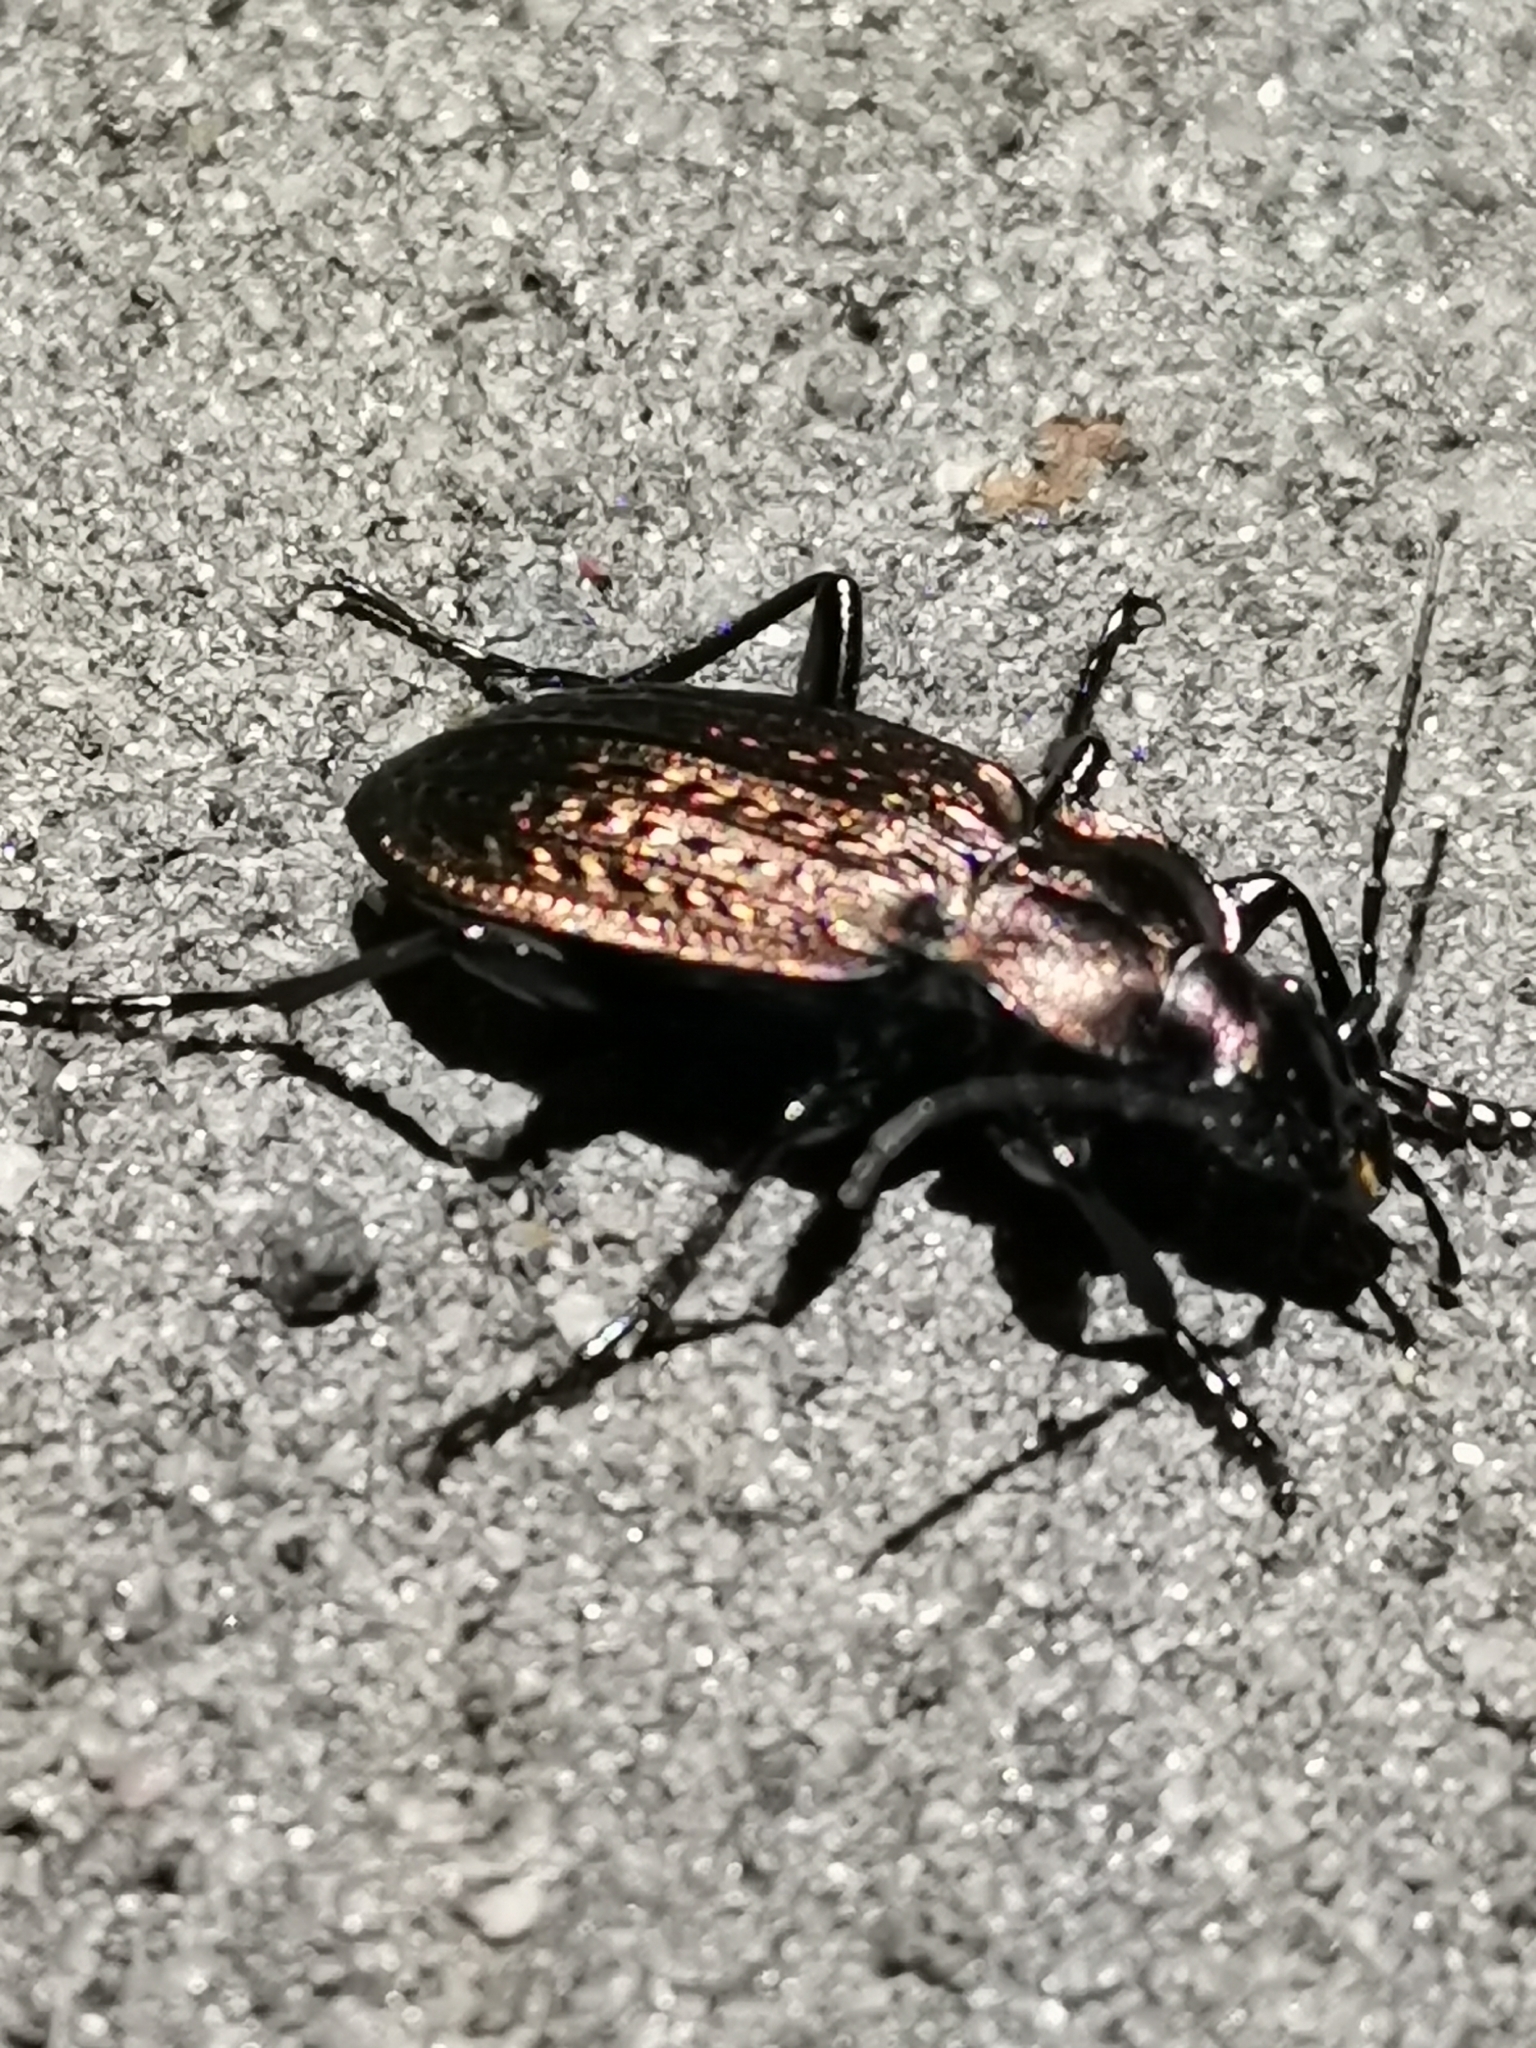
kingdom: Animalia
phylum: Arthropoda
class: Insecta
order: Coleoptera
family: Carabidae
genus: Carabus
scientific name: Carabus granulatus
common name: Granulate ground beetle
